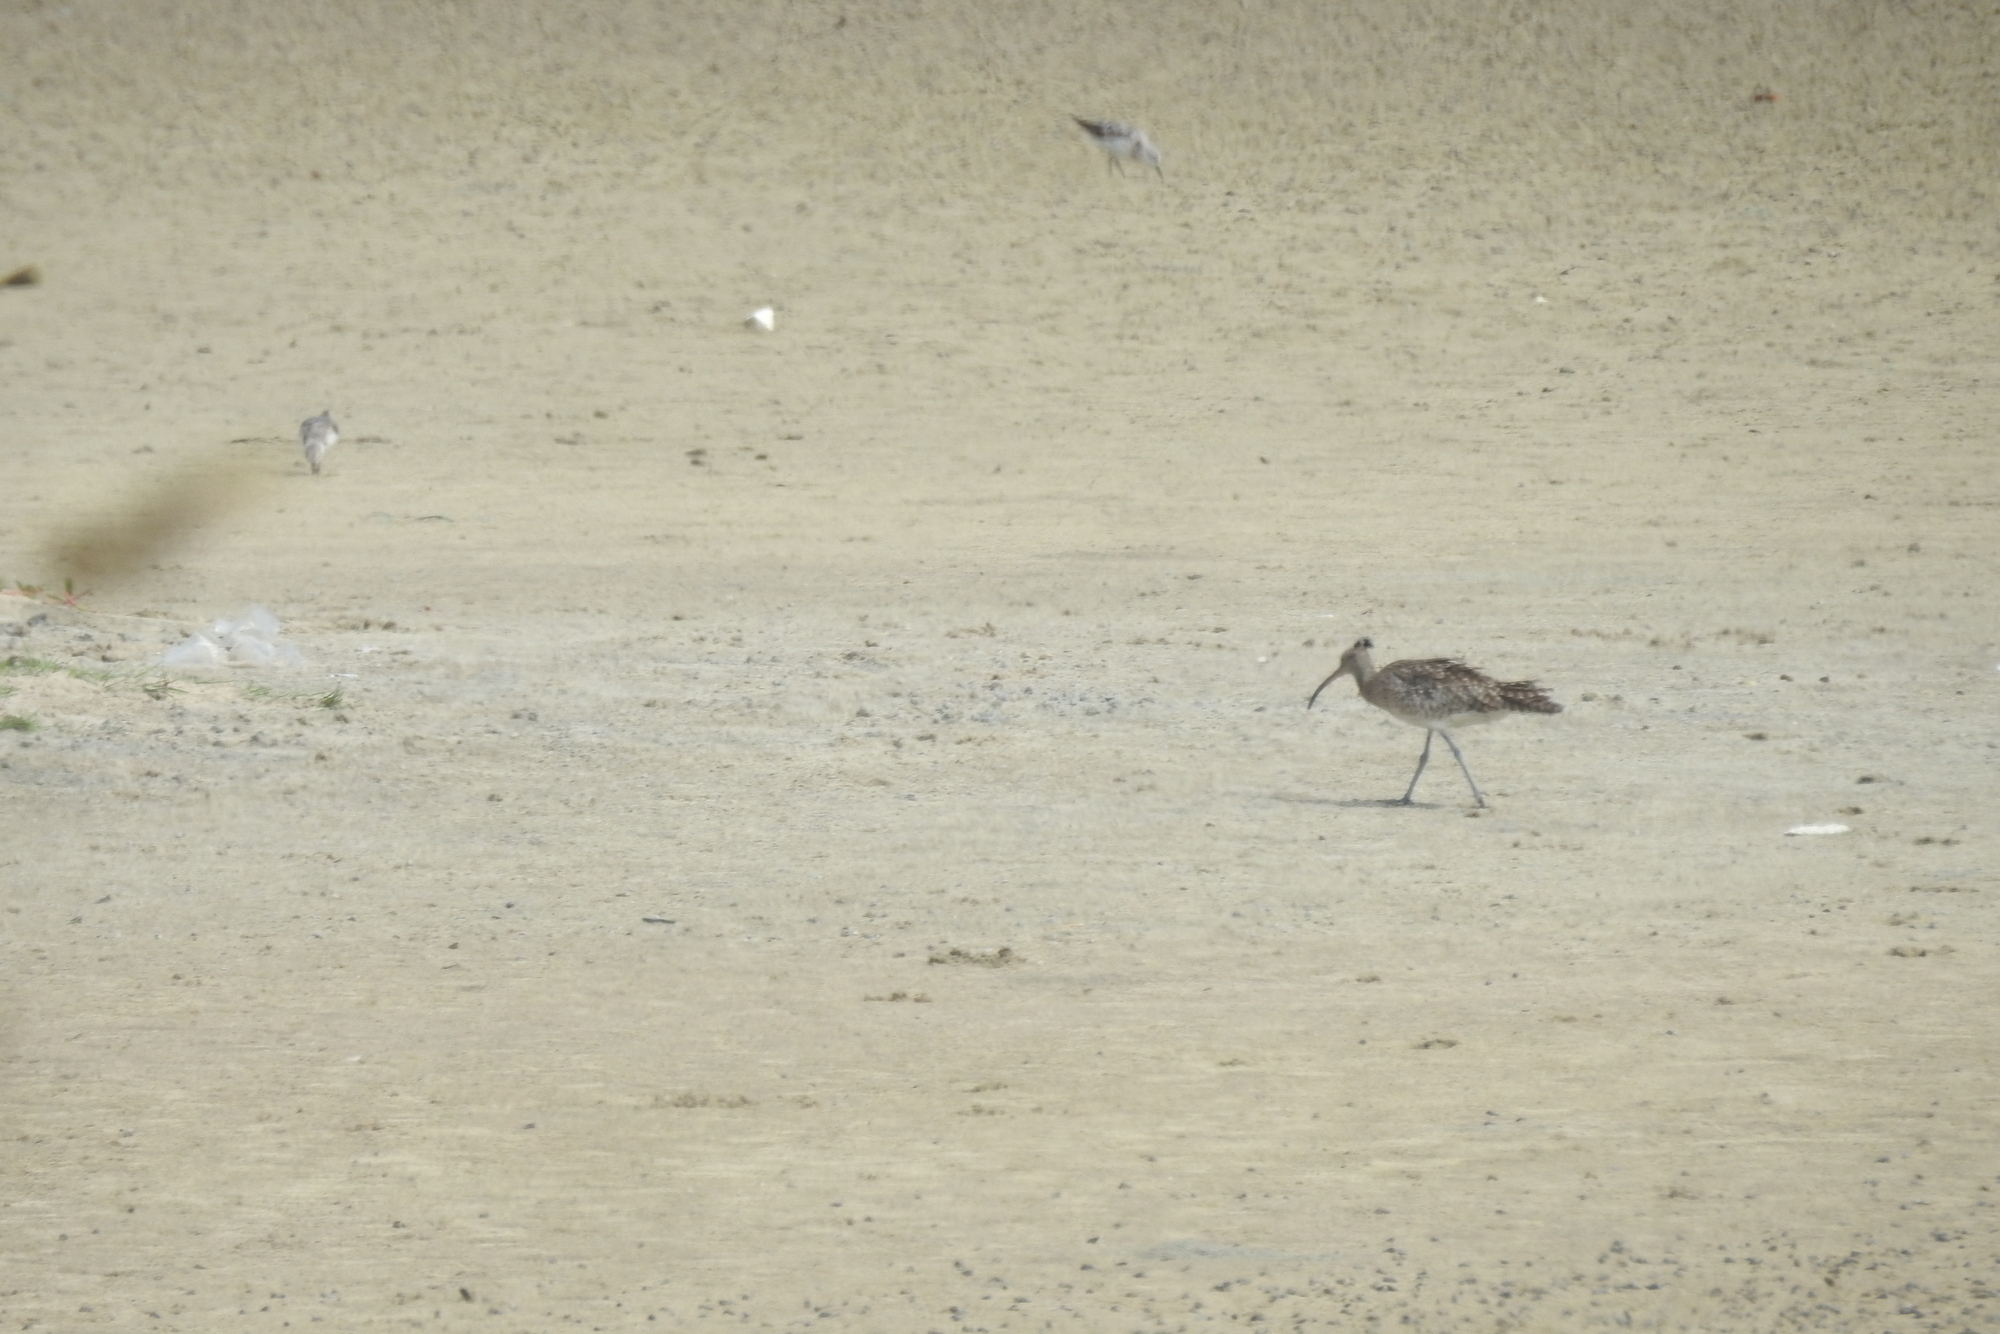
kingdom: Animalia
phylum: Chordata
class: Aves
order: Charadriiformes
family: Scolopacidae
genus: Numenius
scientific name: Numenius phaeopus
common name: Whimbrel
